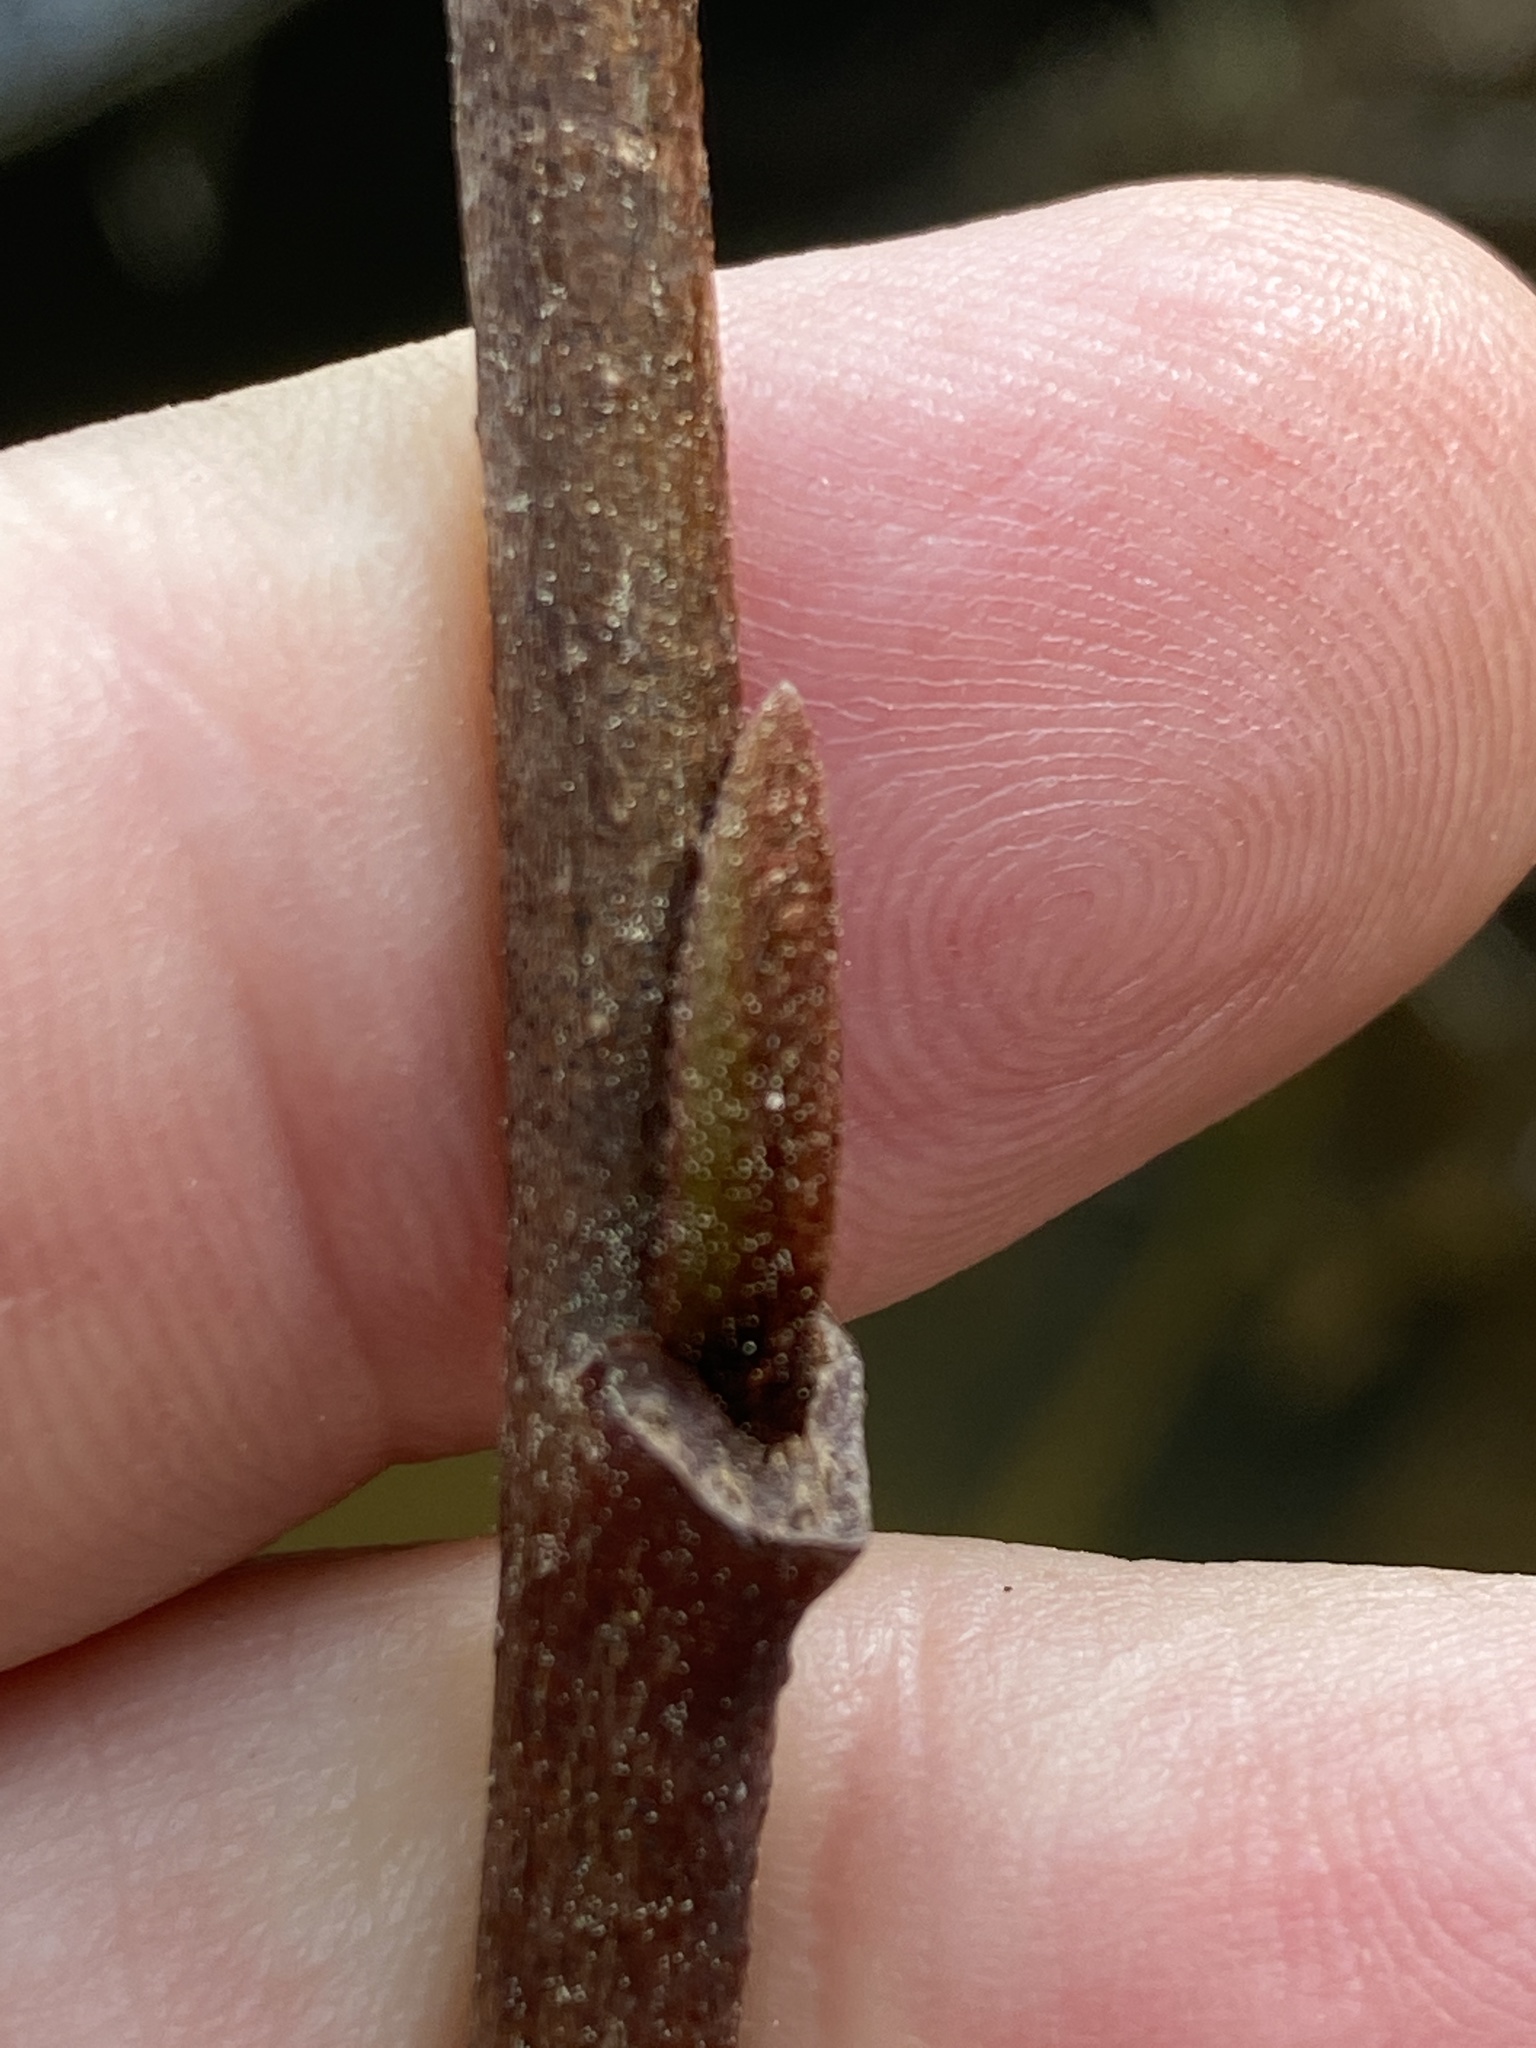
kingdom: Plantae
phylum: Tracheophyta
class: Magnoliopsida
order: Magnoliales
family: Annonaceae
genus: Asimina
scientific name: Asimina triloba
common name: Dog-banana
